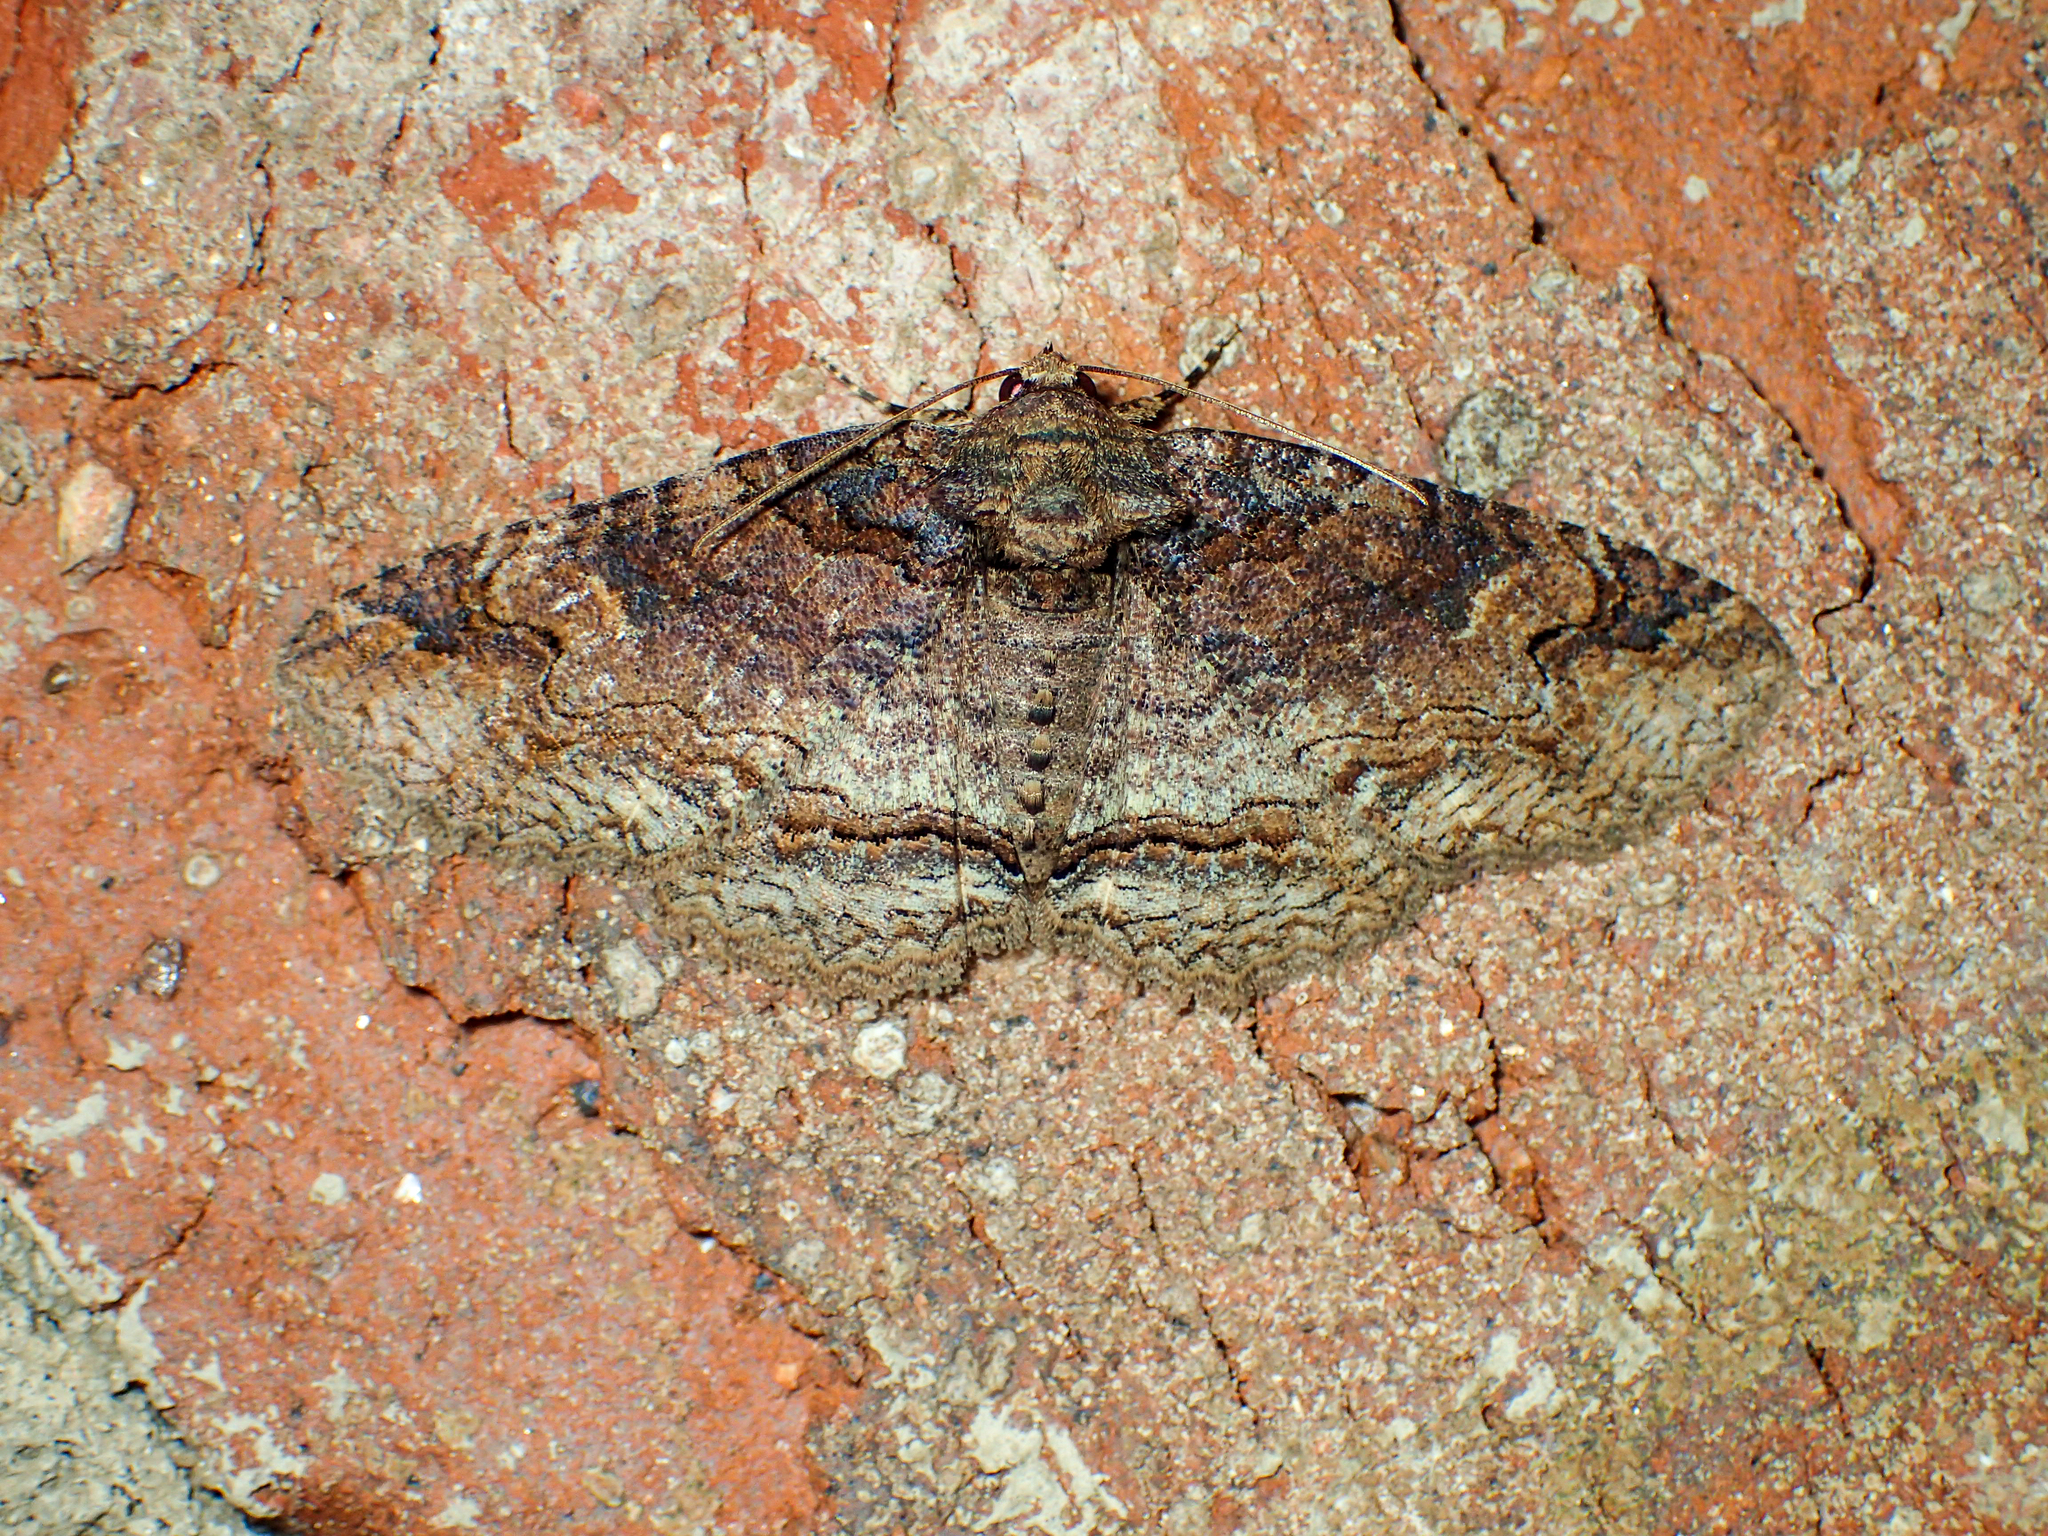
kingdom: Animalia
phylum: Arthropoda
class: Insecta
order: Lepidoptera
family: Erebidae
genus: Zale
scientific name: Zale phaeocapna
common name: Hazel zale moth
